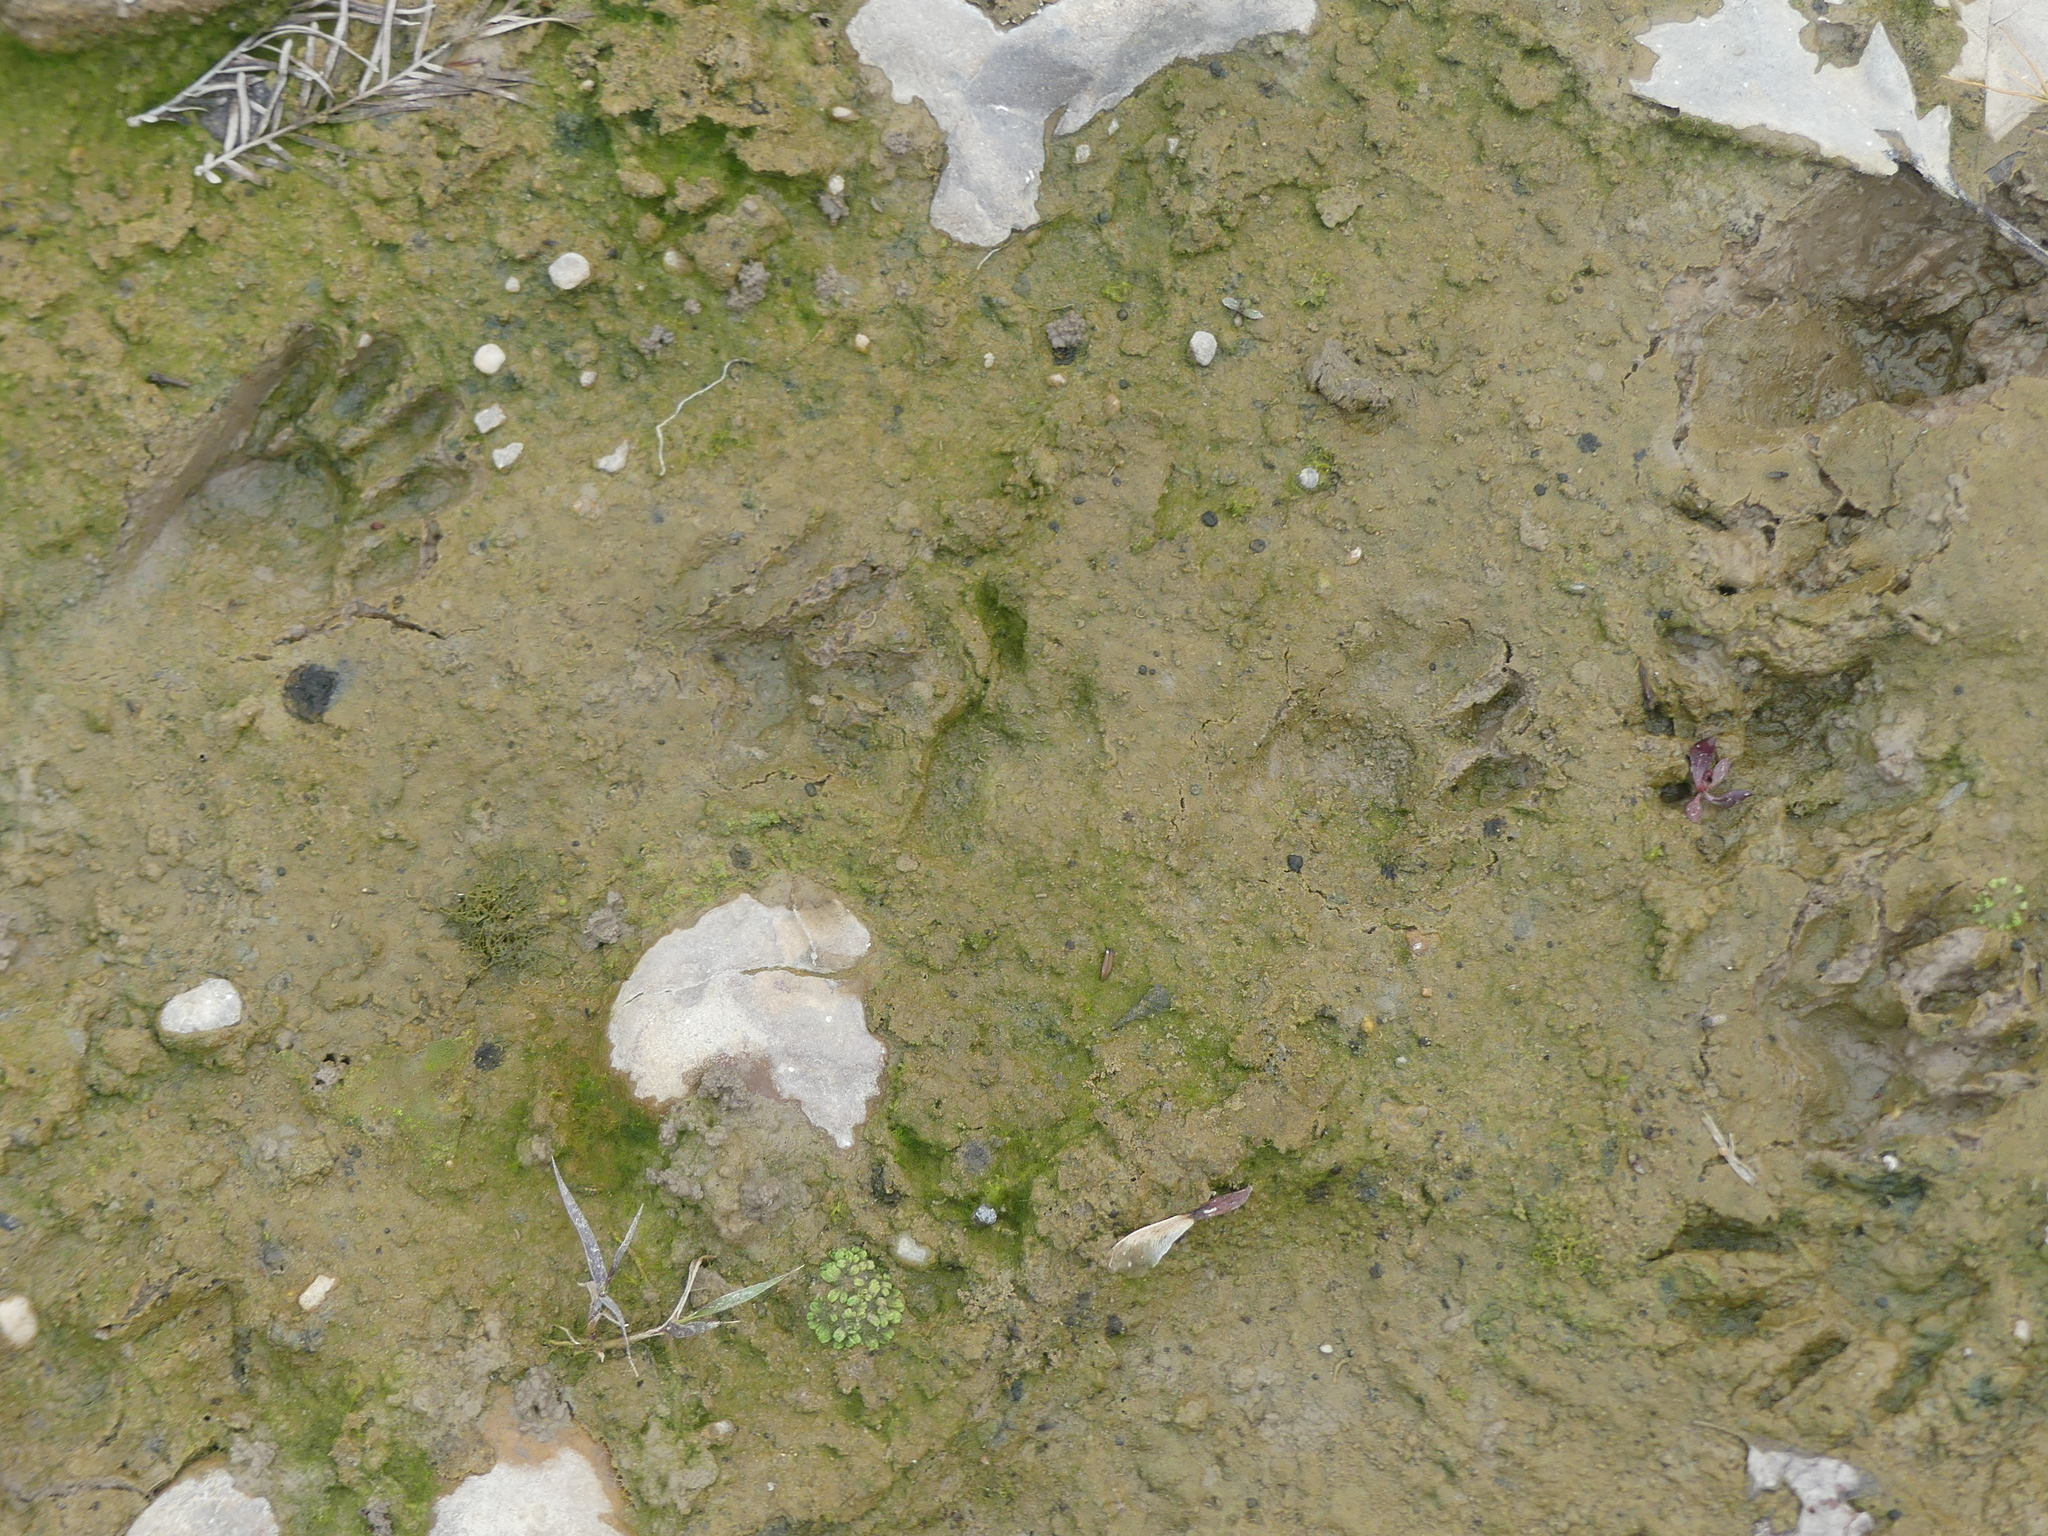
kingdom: Animalia
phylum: Chordata
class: Mammalia
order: Carnivora
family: Procyonidae
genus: Procyon
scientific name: Procyon lotor
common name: Raccoon
